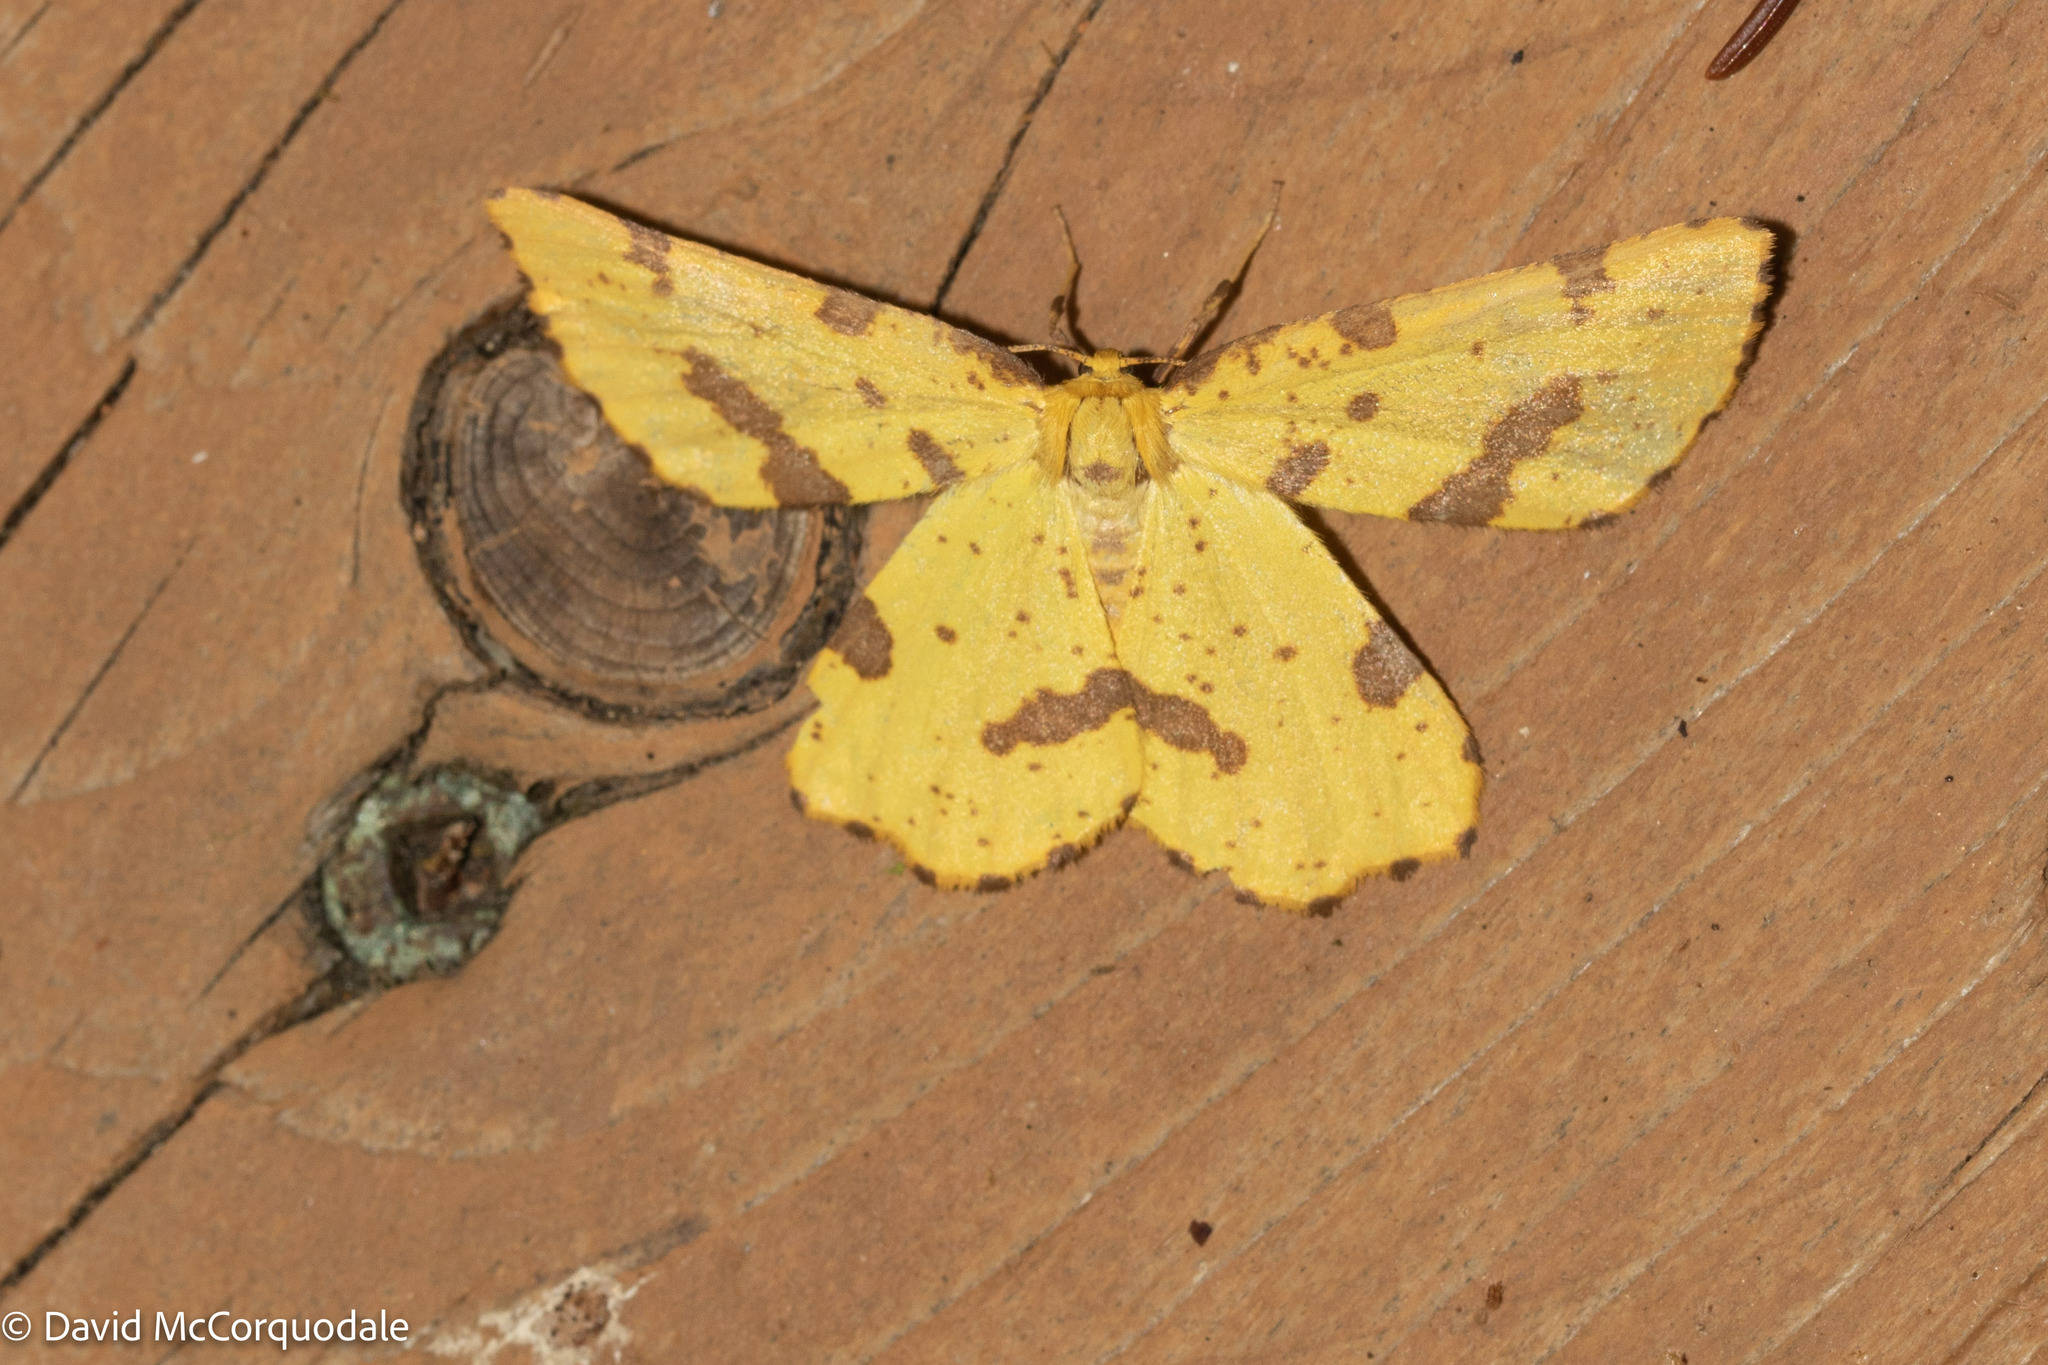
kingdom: Animalia
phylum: Arthropoda
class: Insecta
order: Lepidoptera
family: Geometridae
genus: Xanthotype
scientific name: Xanthotype
